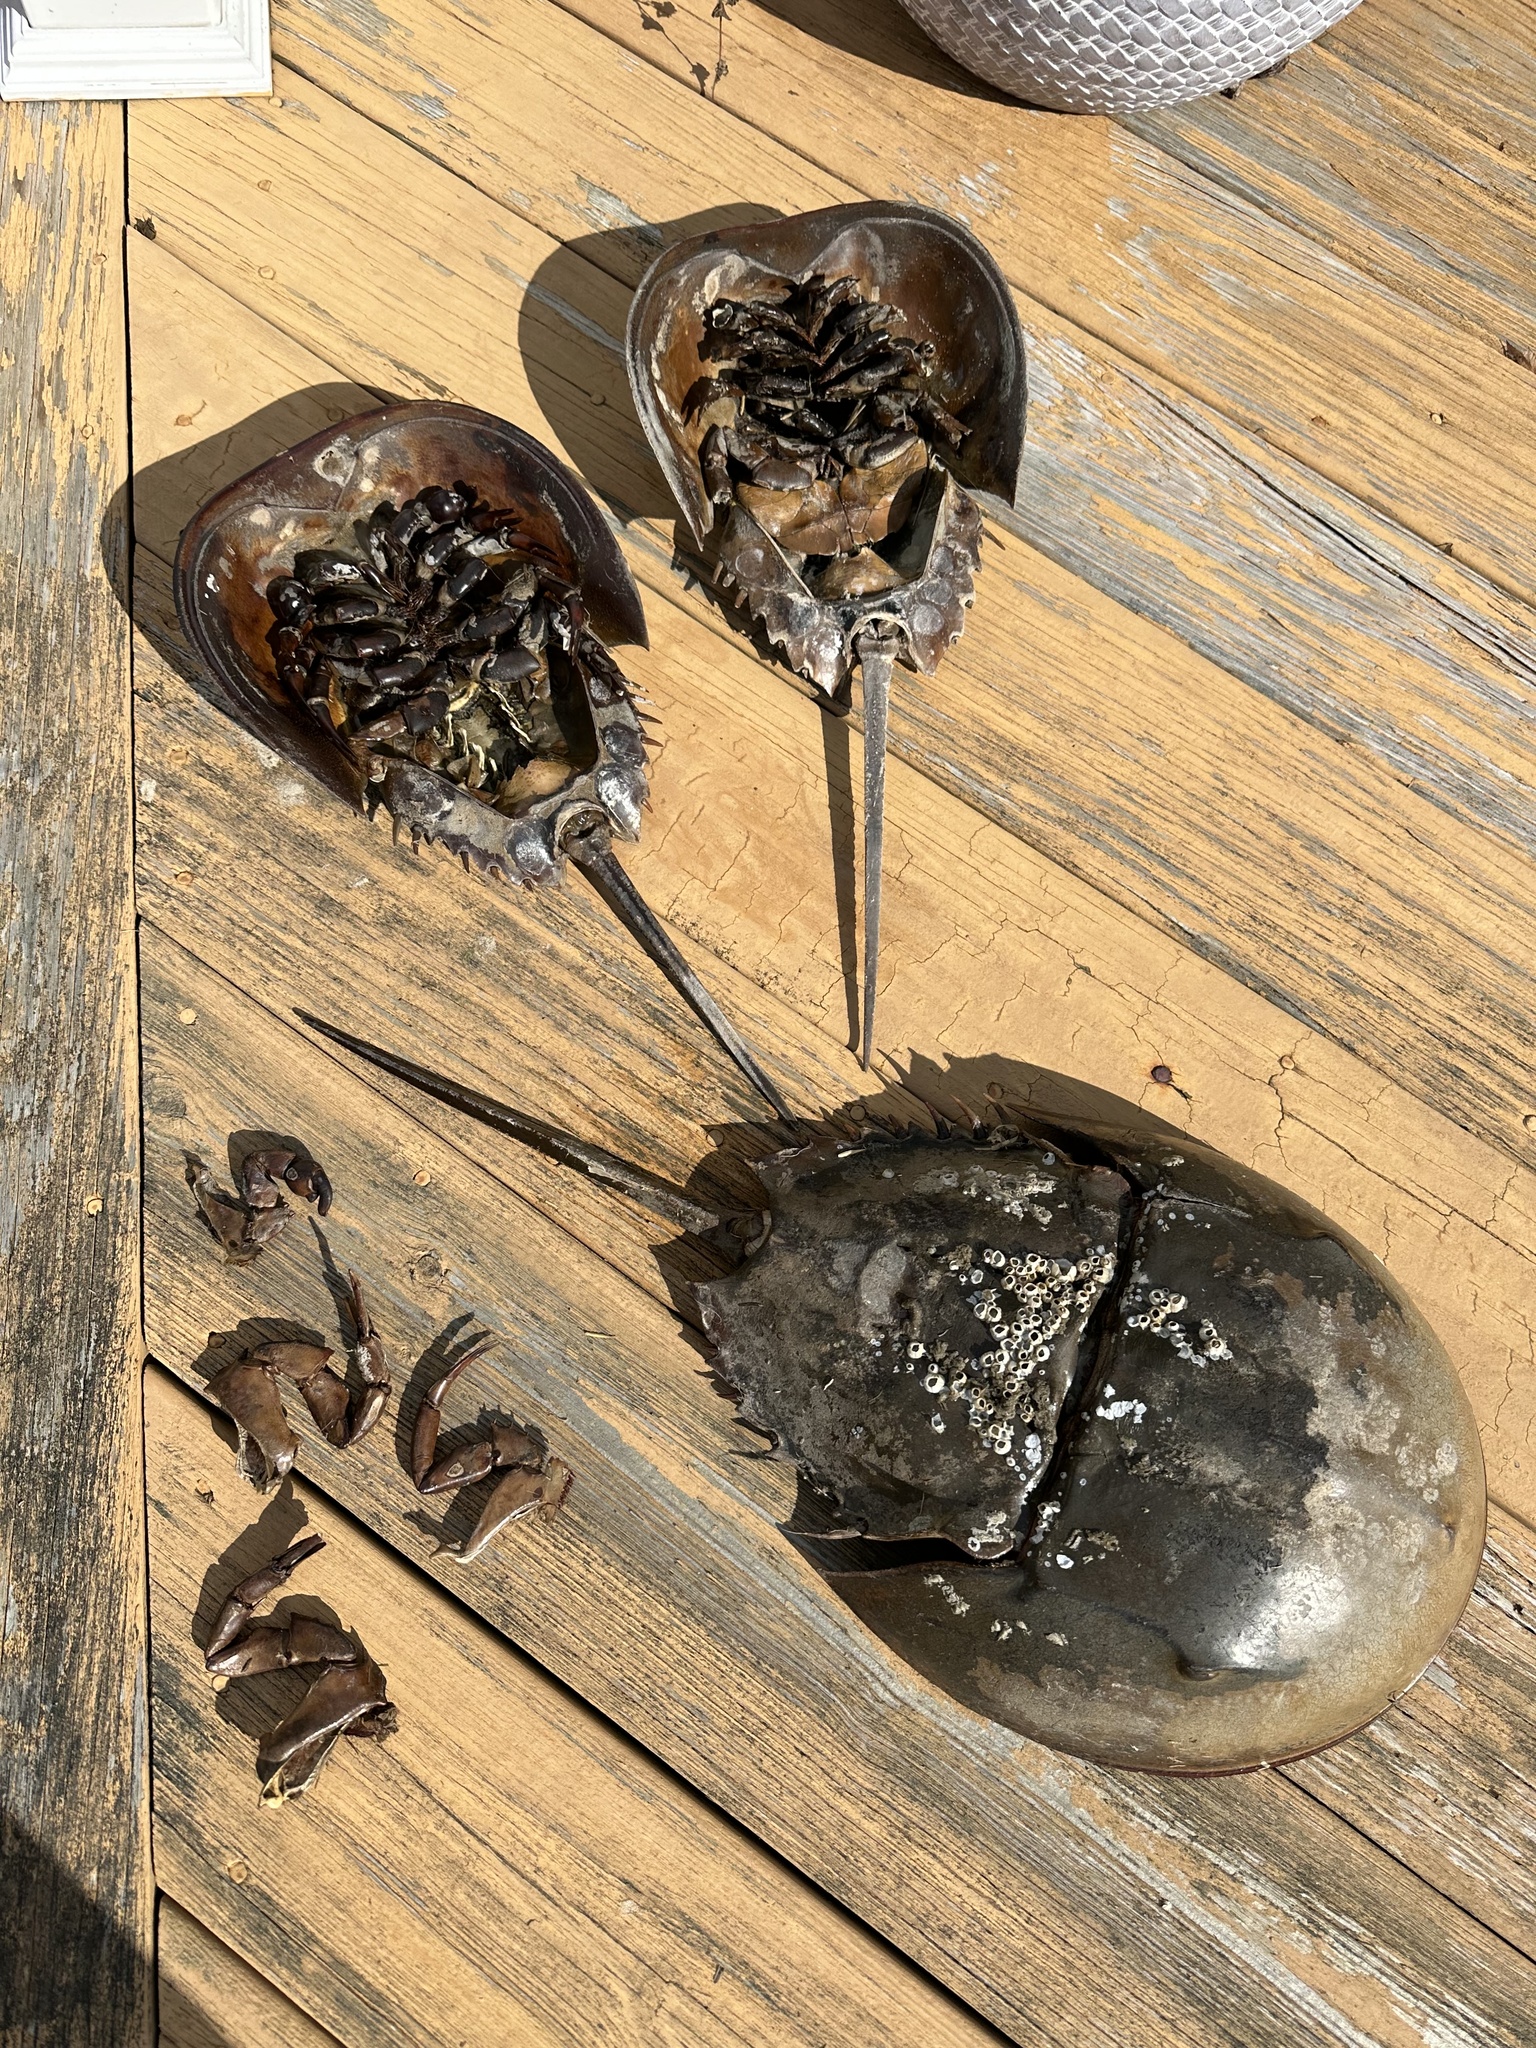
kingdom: Animalia
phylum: Arthropoda
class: Merostomata
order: Xiphosurida
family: Limulidae
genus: Limulus
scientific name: Limulus polyphemus
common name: Horseshoe crab
